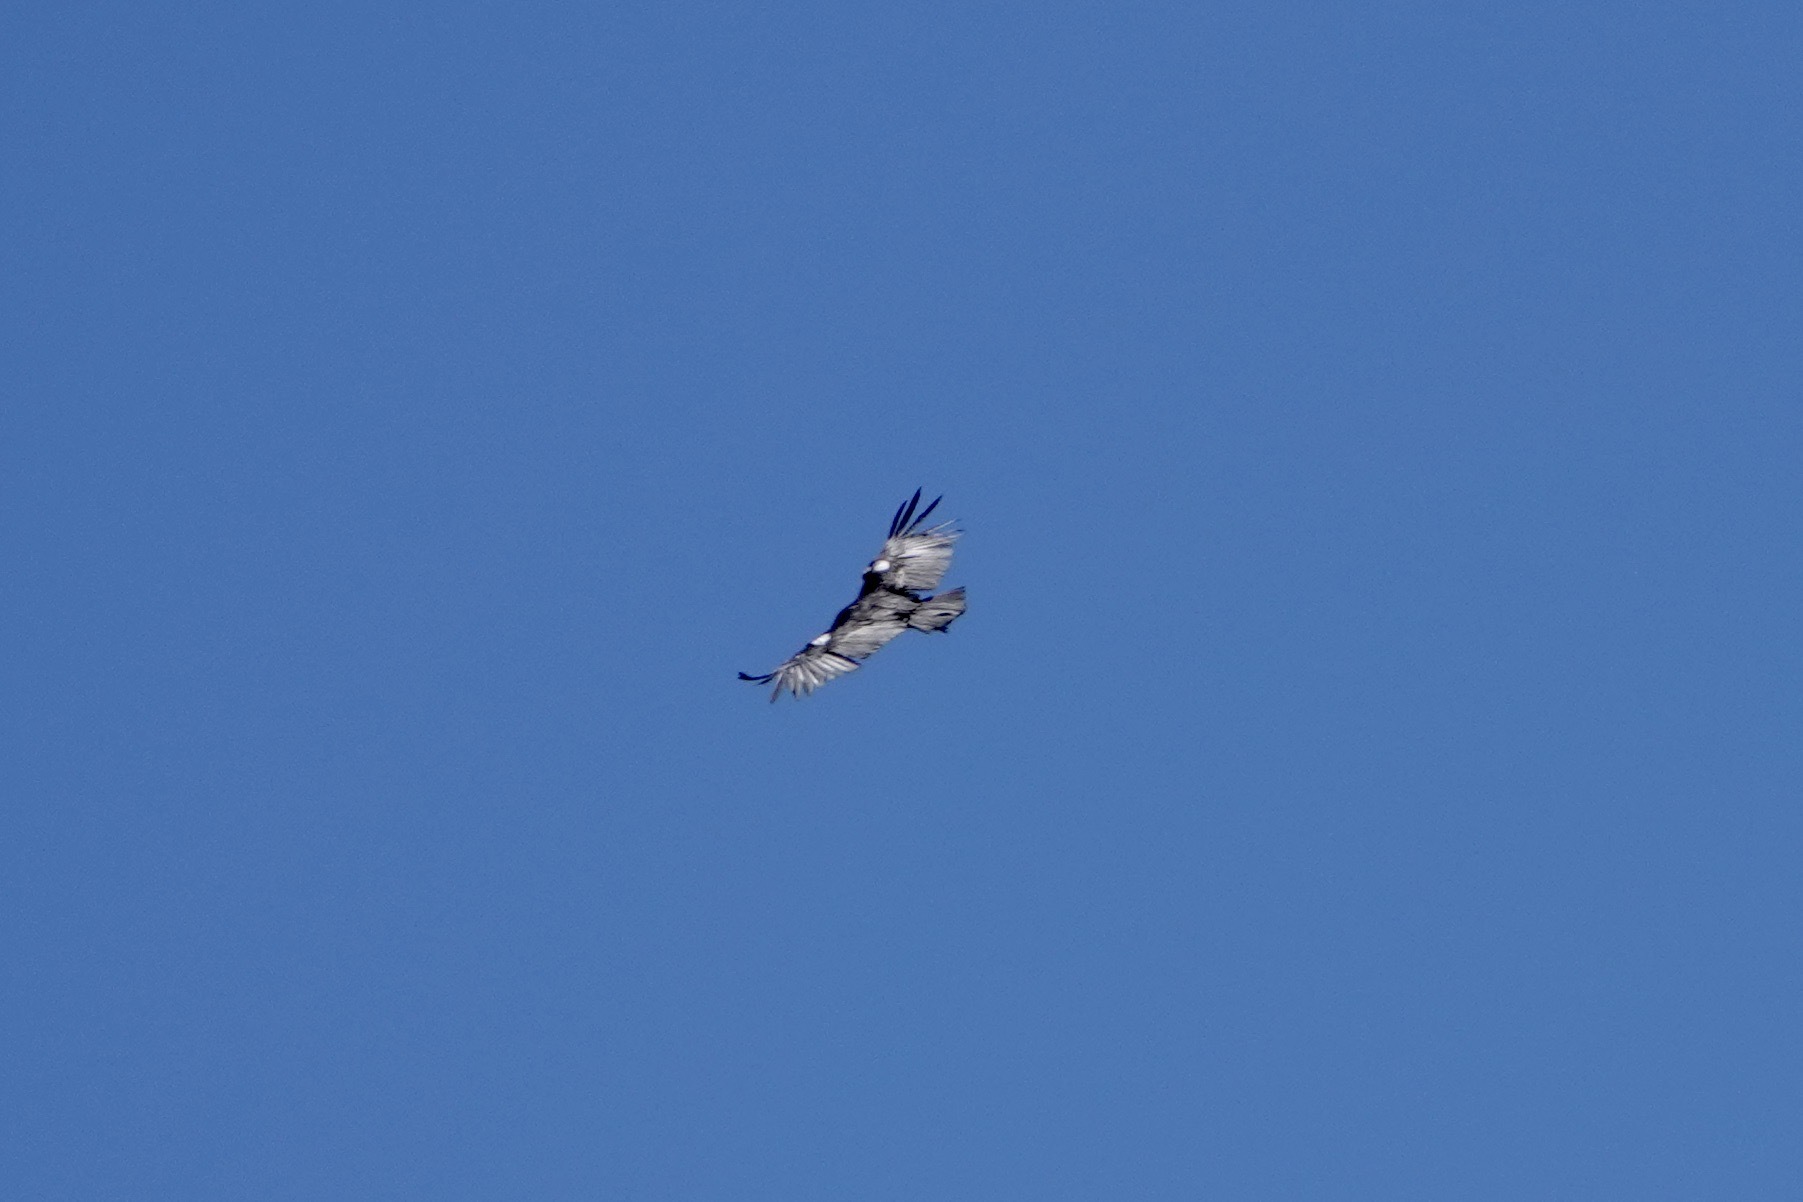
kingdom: Animalia
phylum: Chordata
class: Aves
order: Accipitriformes
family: Cathartidae
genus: Gymnogyps
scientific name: Gymnogyps californianus
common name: California condor
